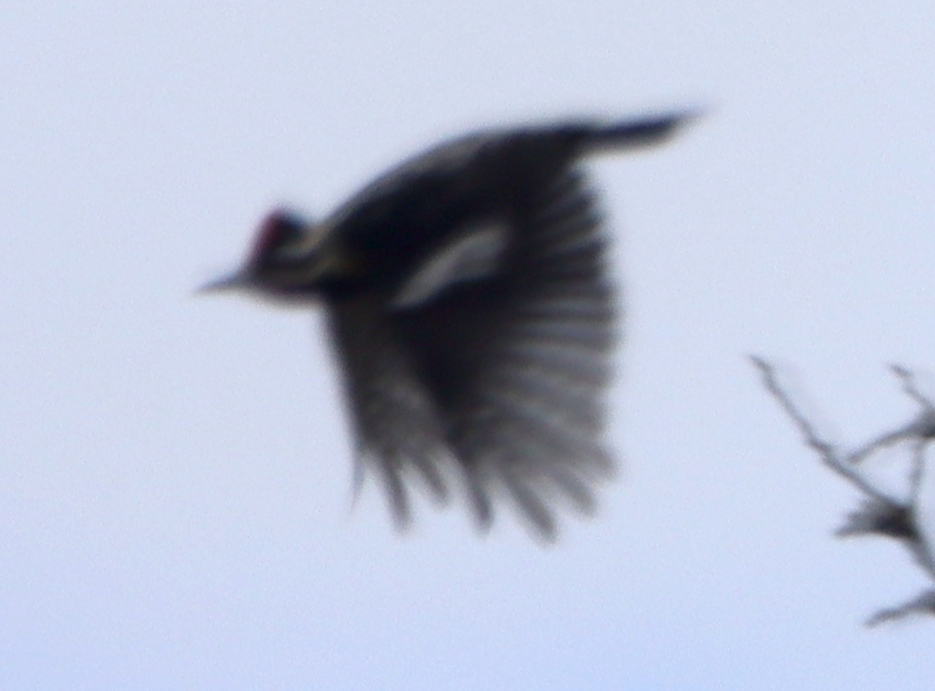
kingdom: Animalia
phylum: Chordata
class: Aves
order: Piciformes
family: Picidae
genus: Sphyrapicus
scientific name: Sphyrapicus varius
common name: Yellow-bellied sapsucker
